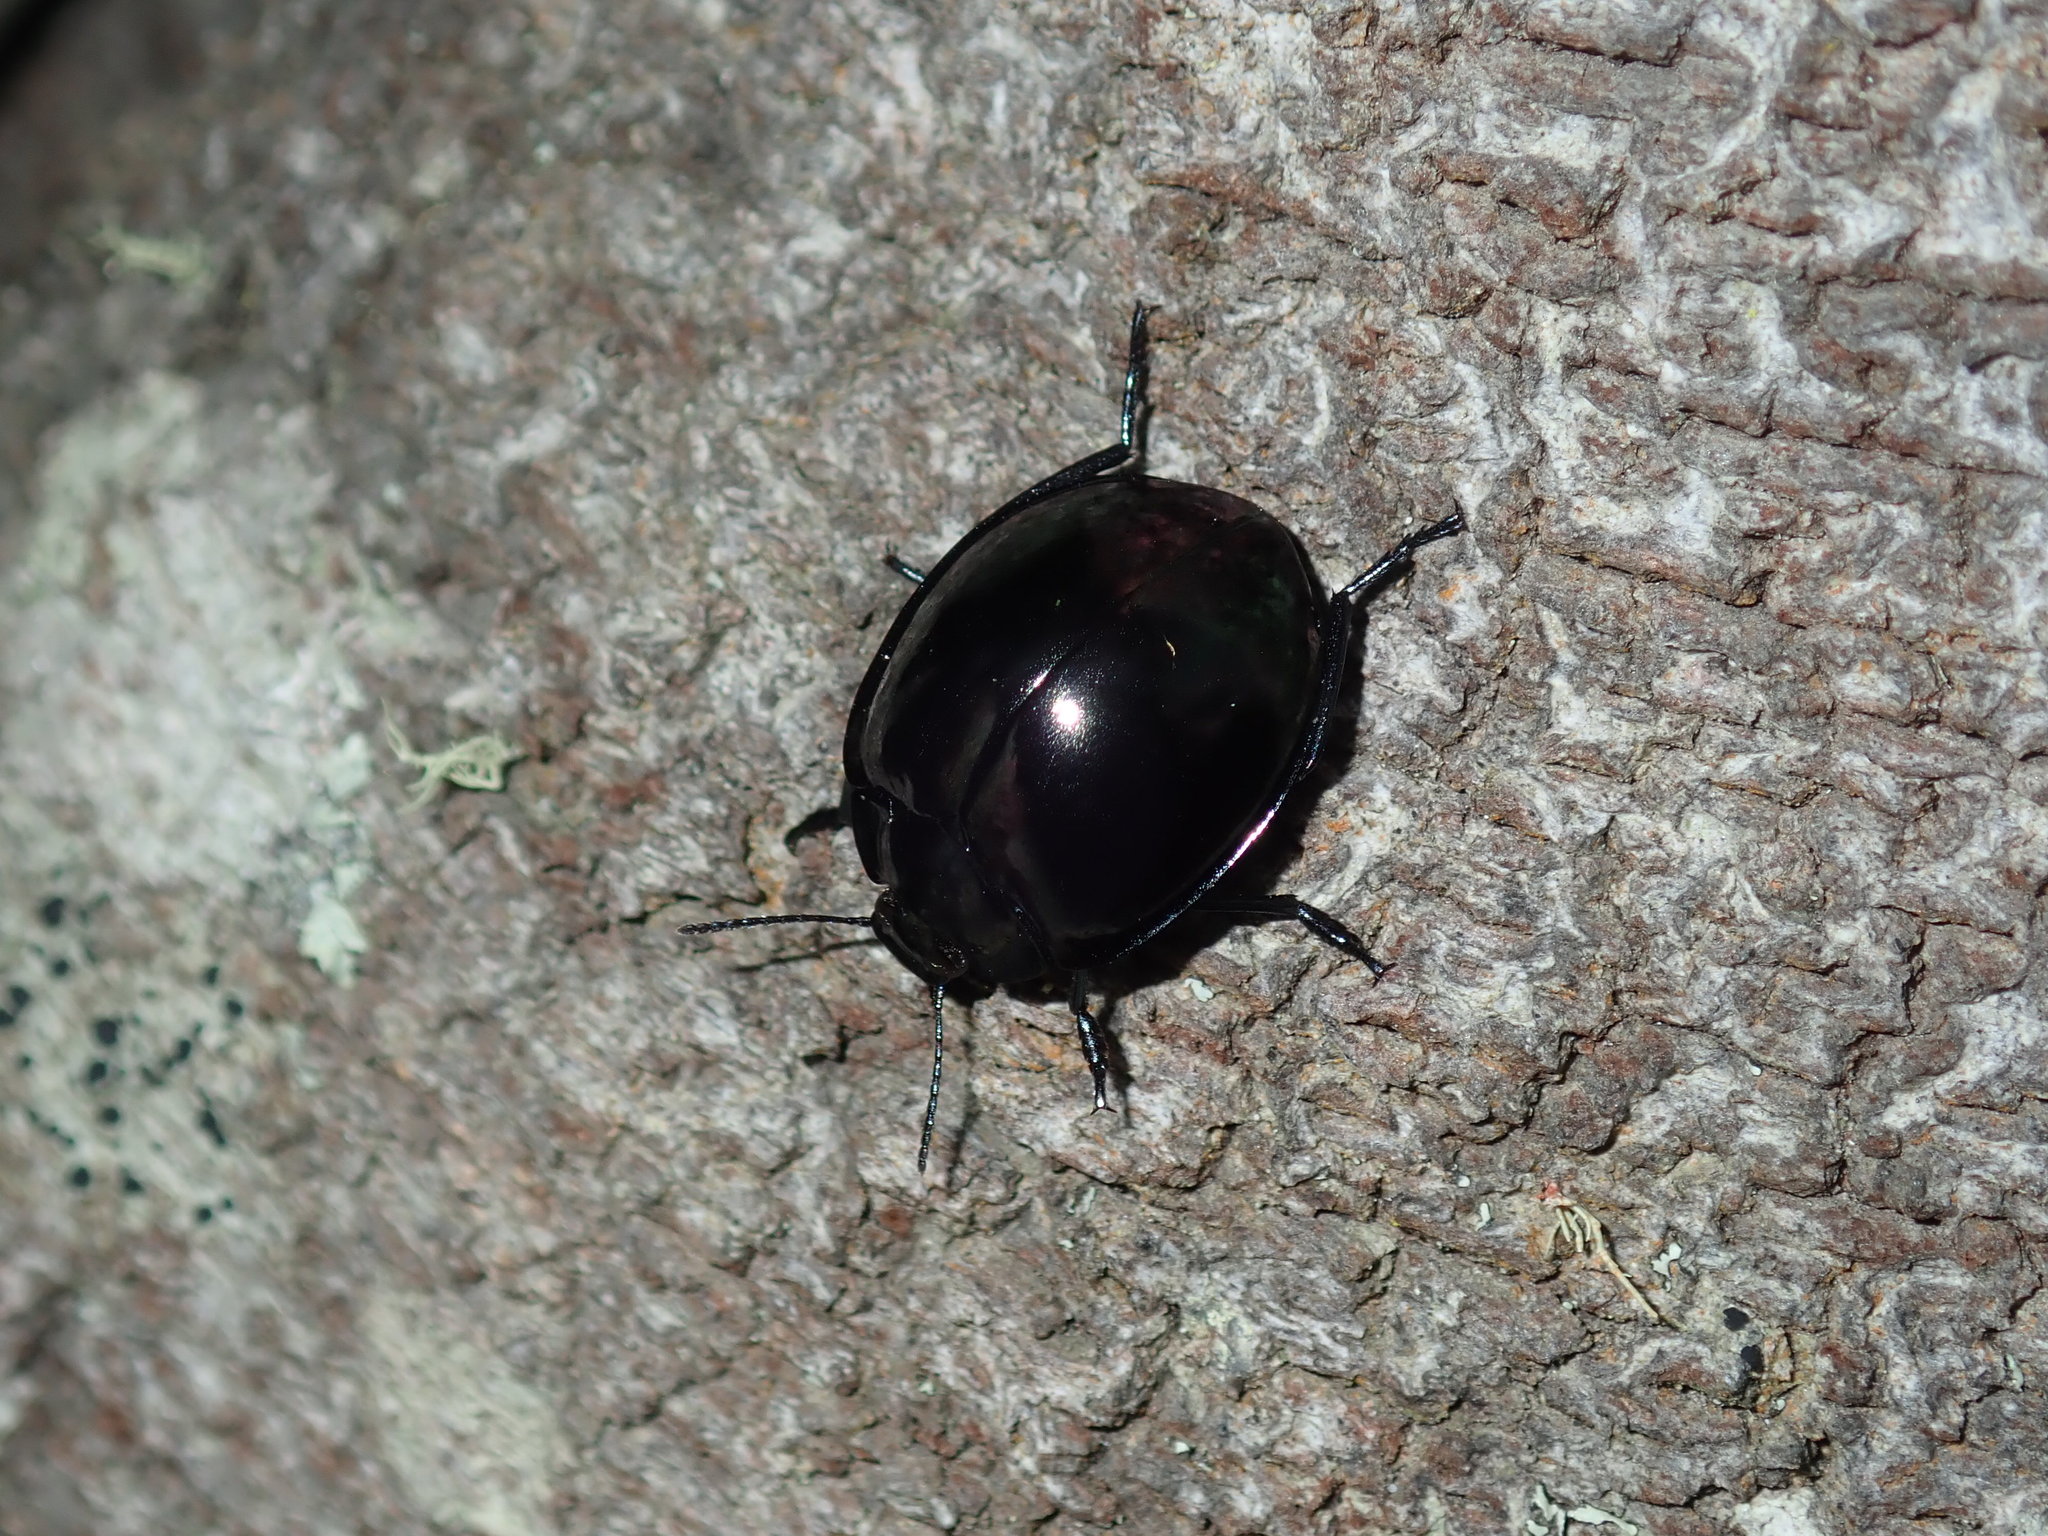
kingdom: Animalia
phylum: Arthropoda
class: Insecta
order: Coleoptera
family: Tenebrionidae
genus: Hemicyclus
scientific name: Hemicyclus
